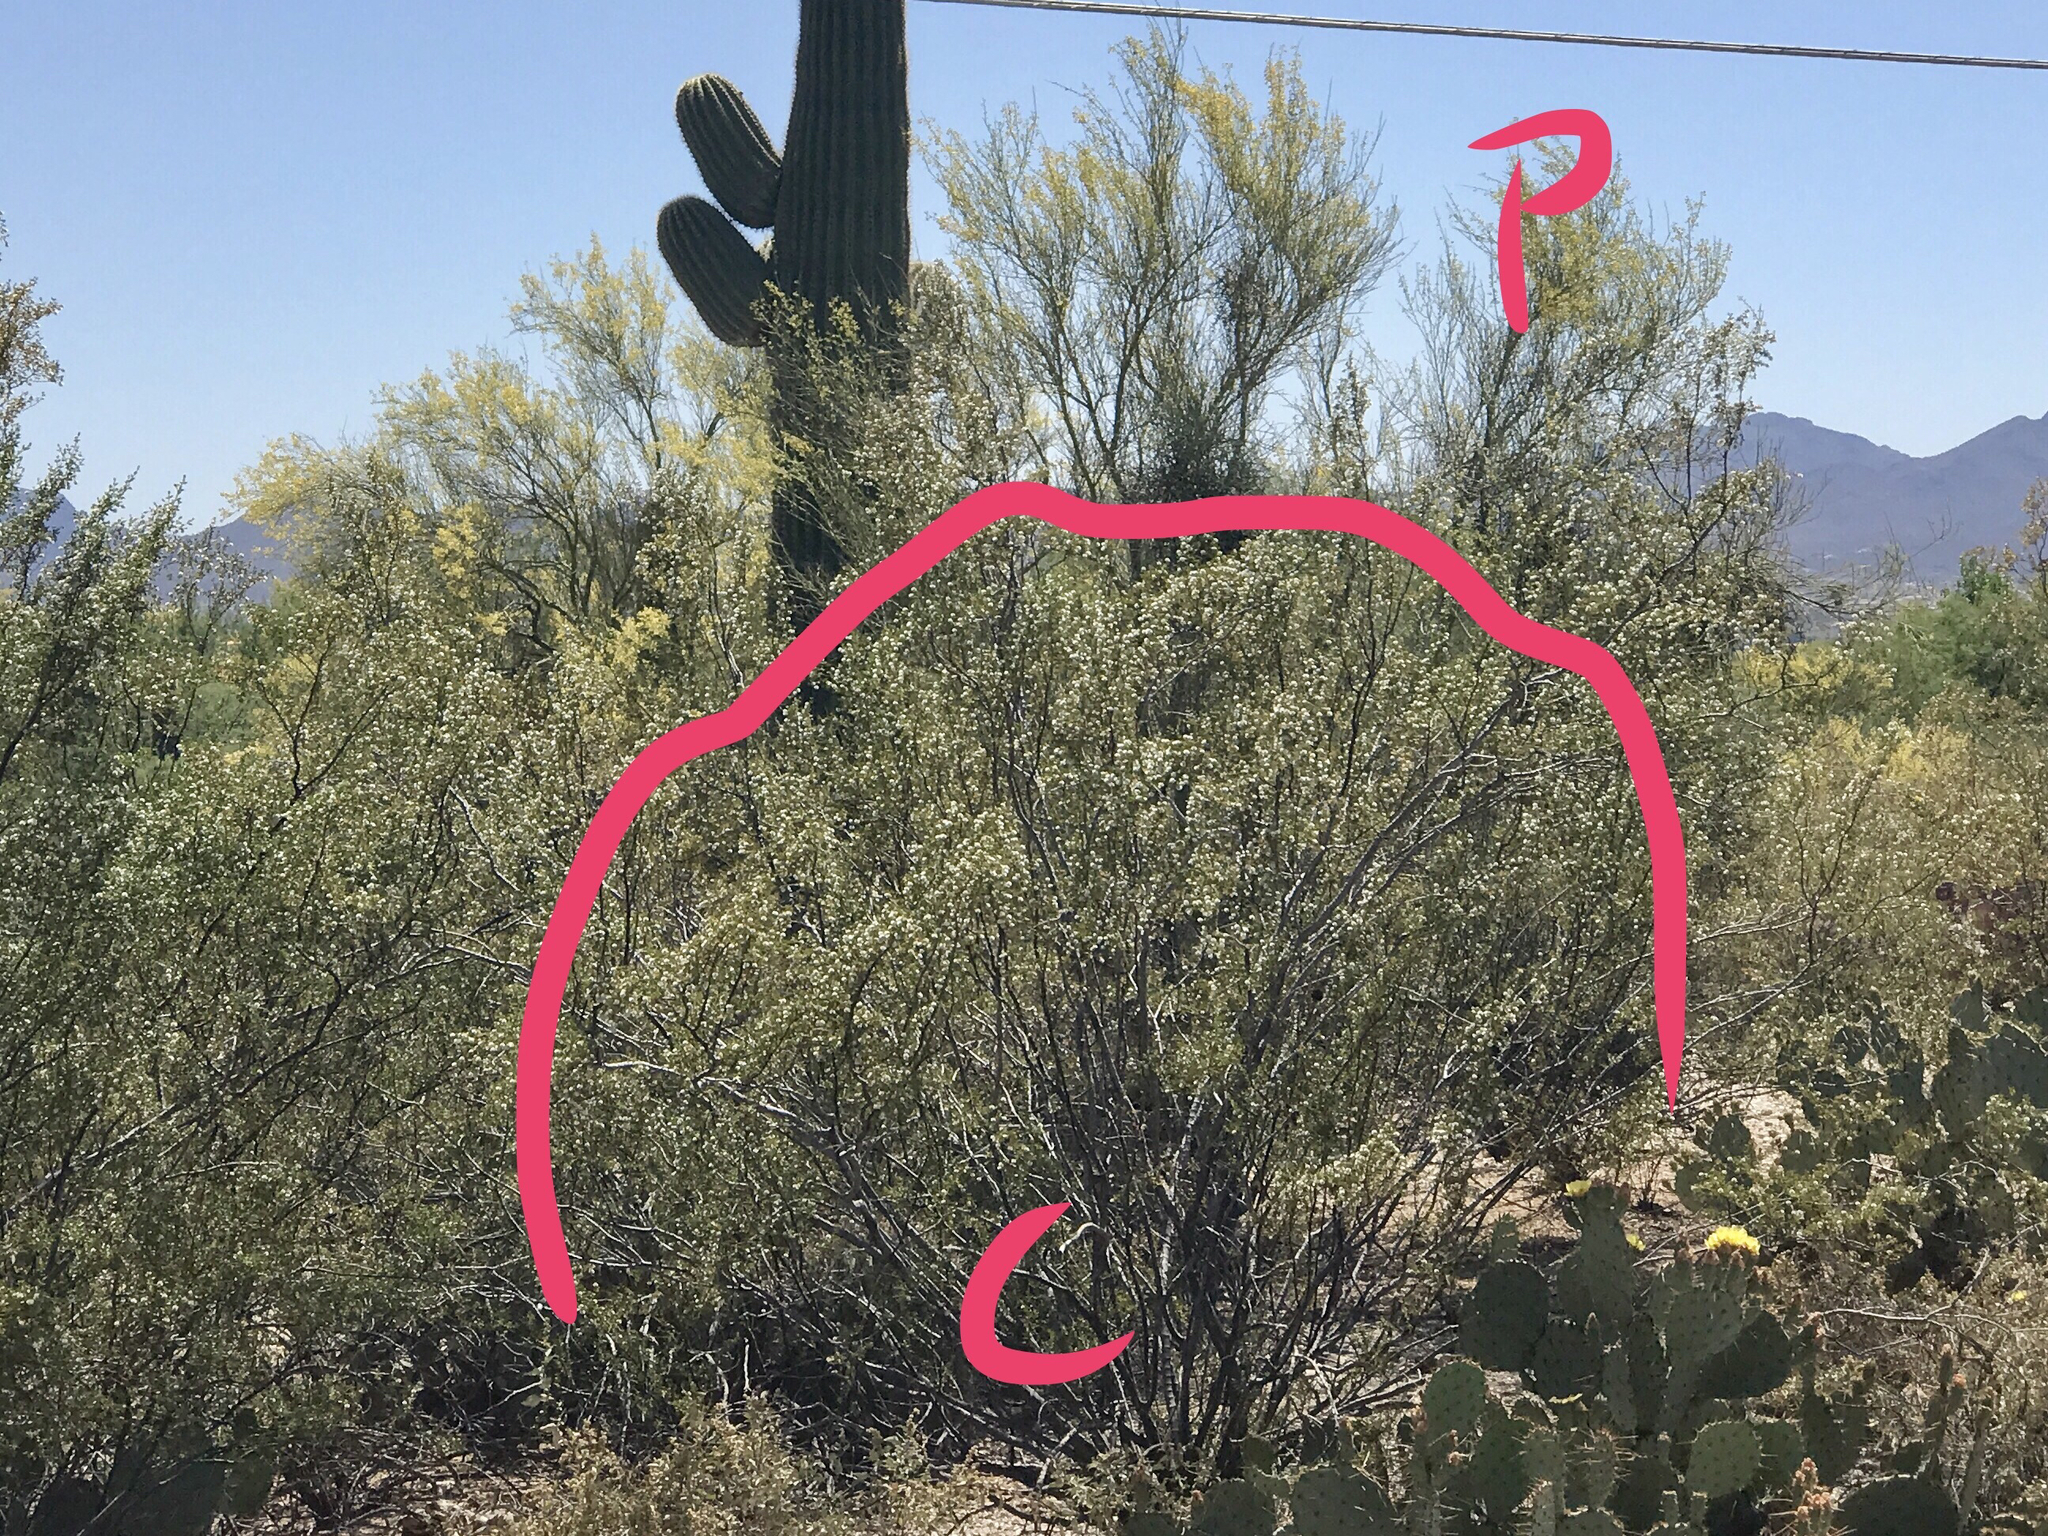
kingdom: Plantae
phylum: Tracheophyta
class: Magnoliopsida
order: Fabales
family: Fabaceae
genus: Parkinsonia
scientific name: Parkinsonia florida
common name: Blue paloverde
